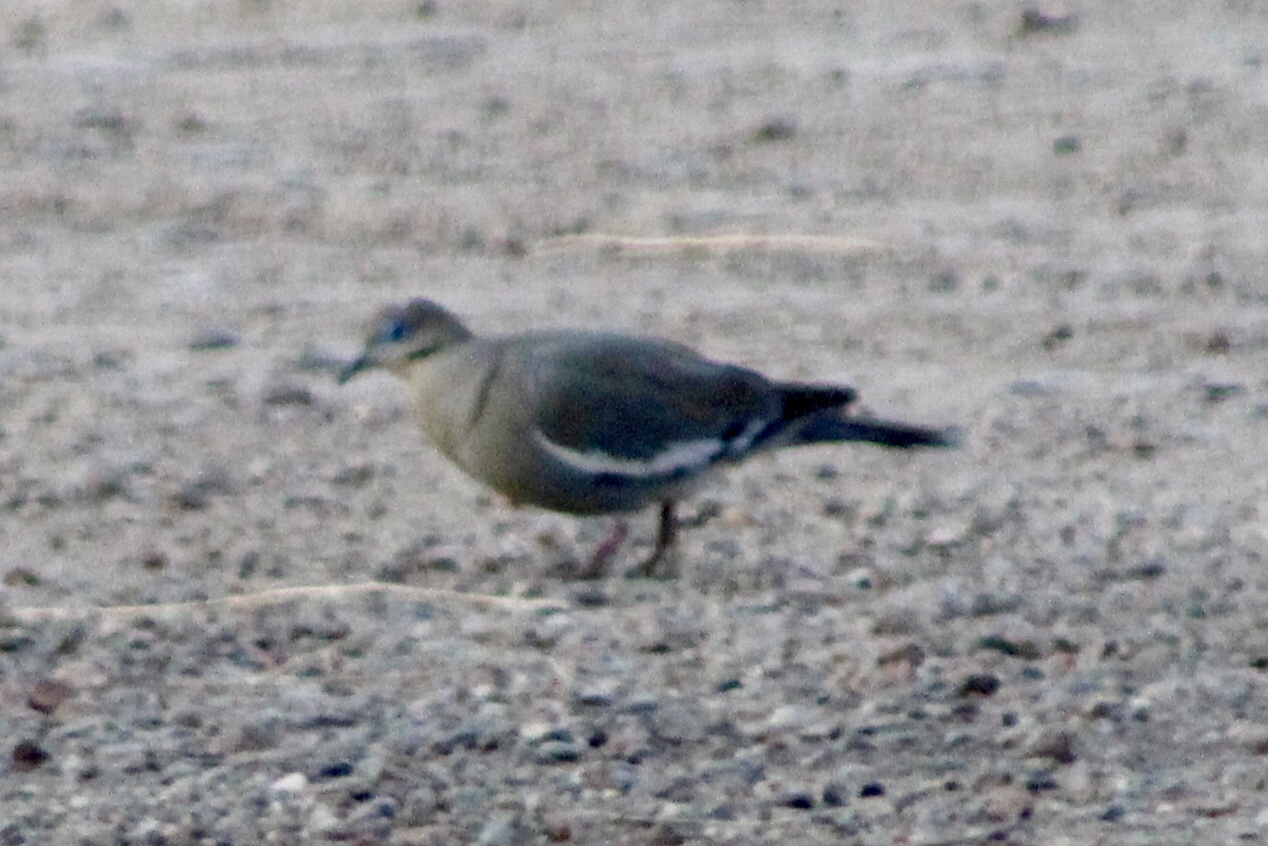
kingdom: Animalia
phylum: Chordata
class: Aves
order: Columbiformes
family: Columbidae
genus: Zenaida
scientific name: Zenaida asiatica
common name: White-winged dove
